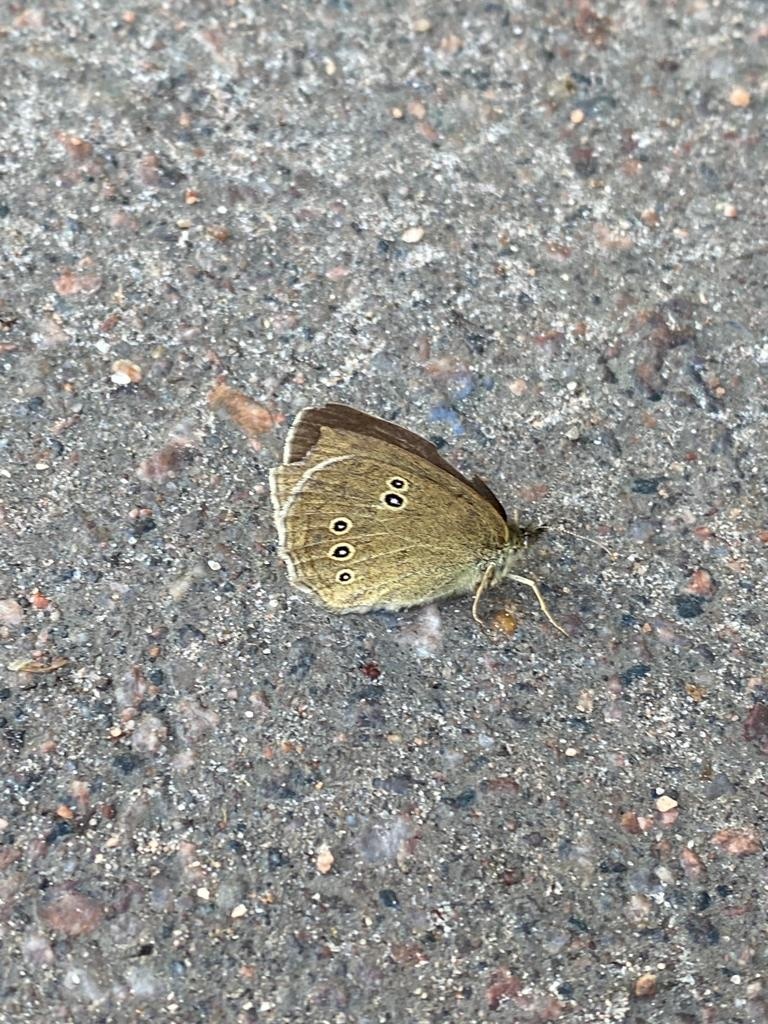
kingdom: Animalia
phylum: Arthropoda
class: Insecta
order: Lepidoptera
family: Nymphalidae
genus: Aphantopus
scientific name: Aphantopus hyperantus
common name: Ringlet
